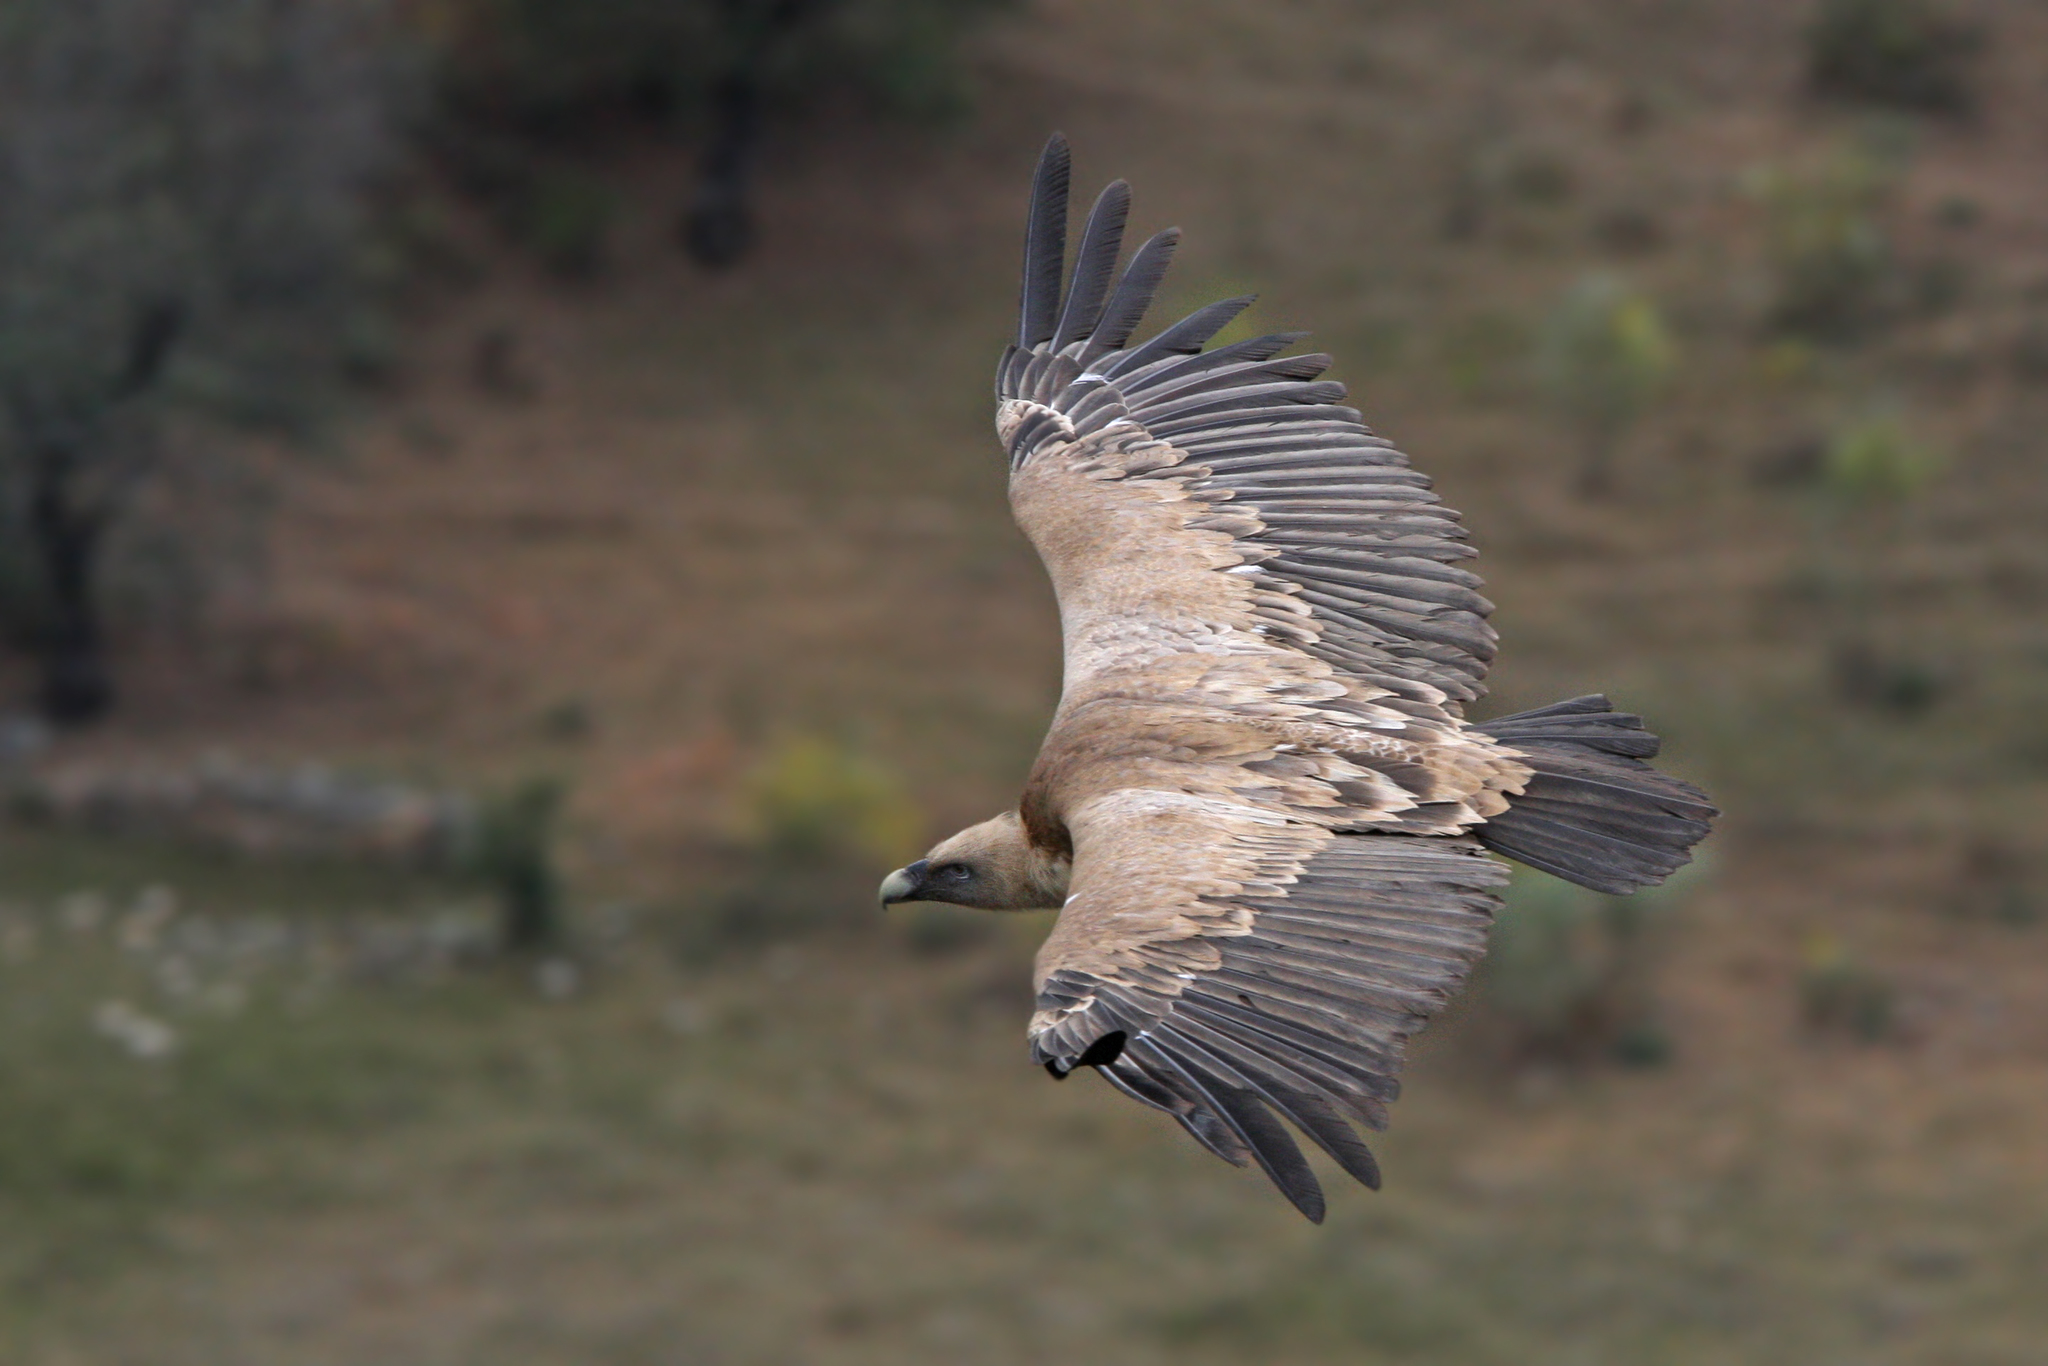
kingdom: Animalia
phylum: Chordata
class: Aves
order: Accipitriformes
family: Accipitridae
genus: Gyps
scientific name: Gyps fulvus
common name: Griffon vulture
